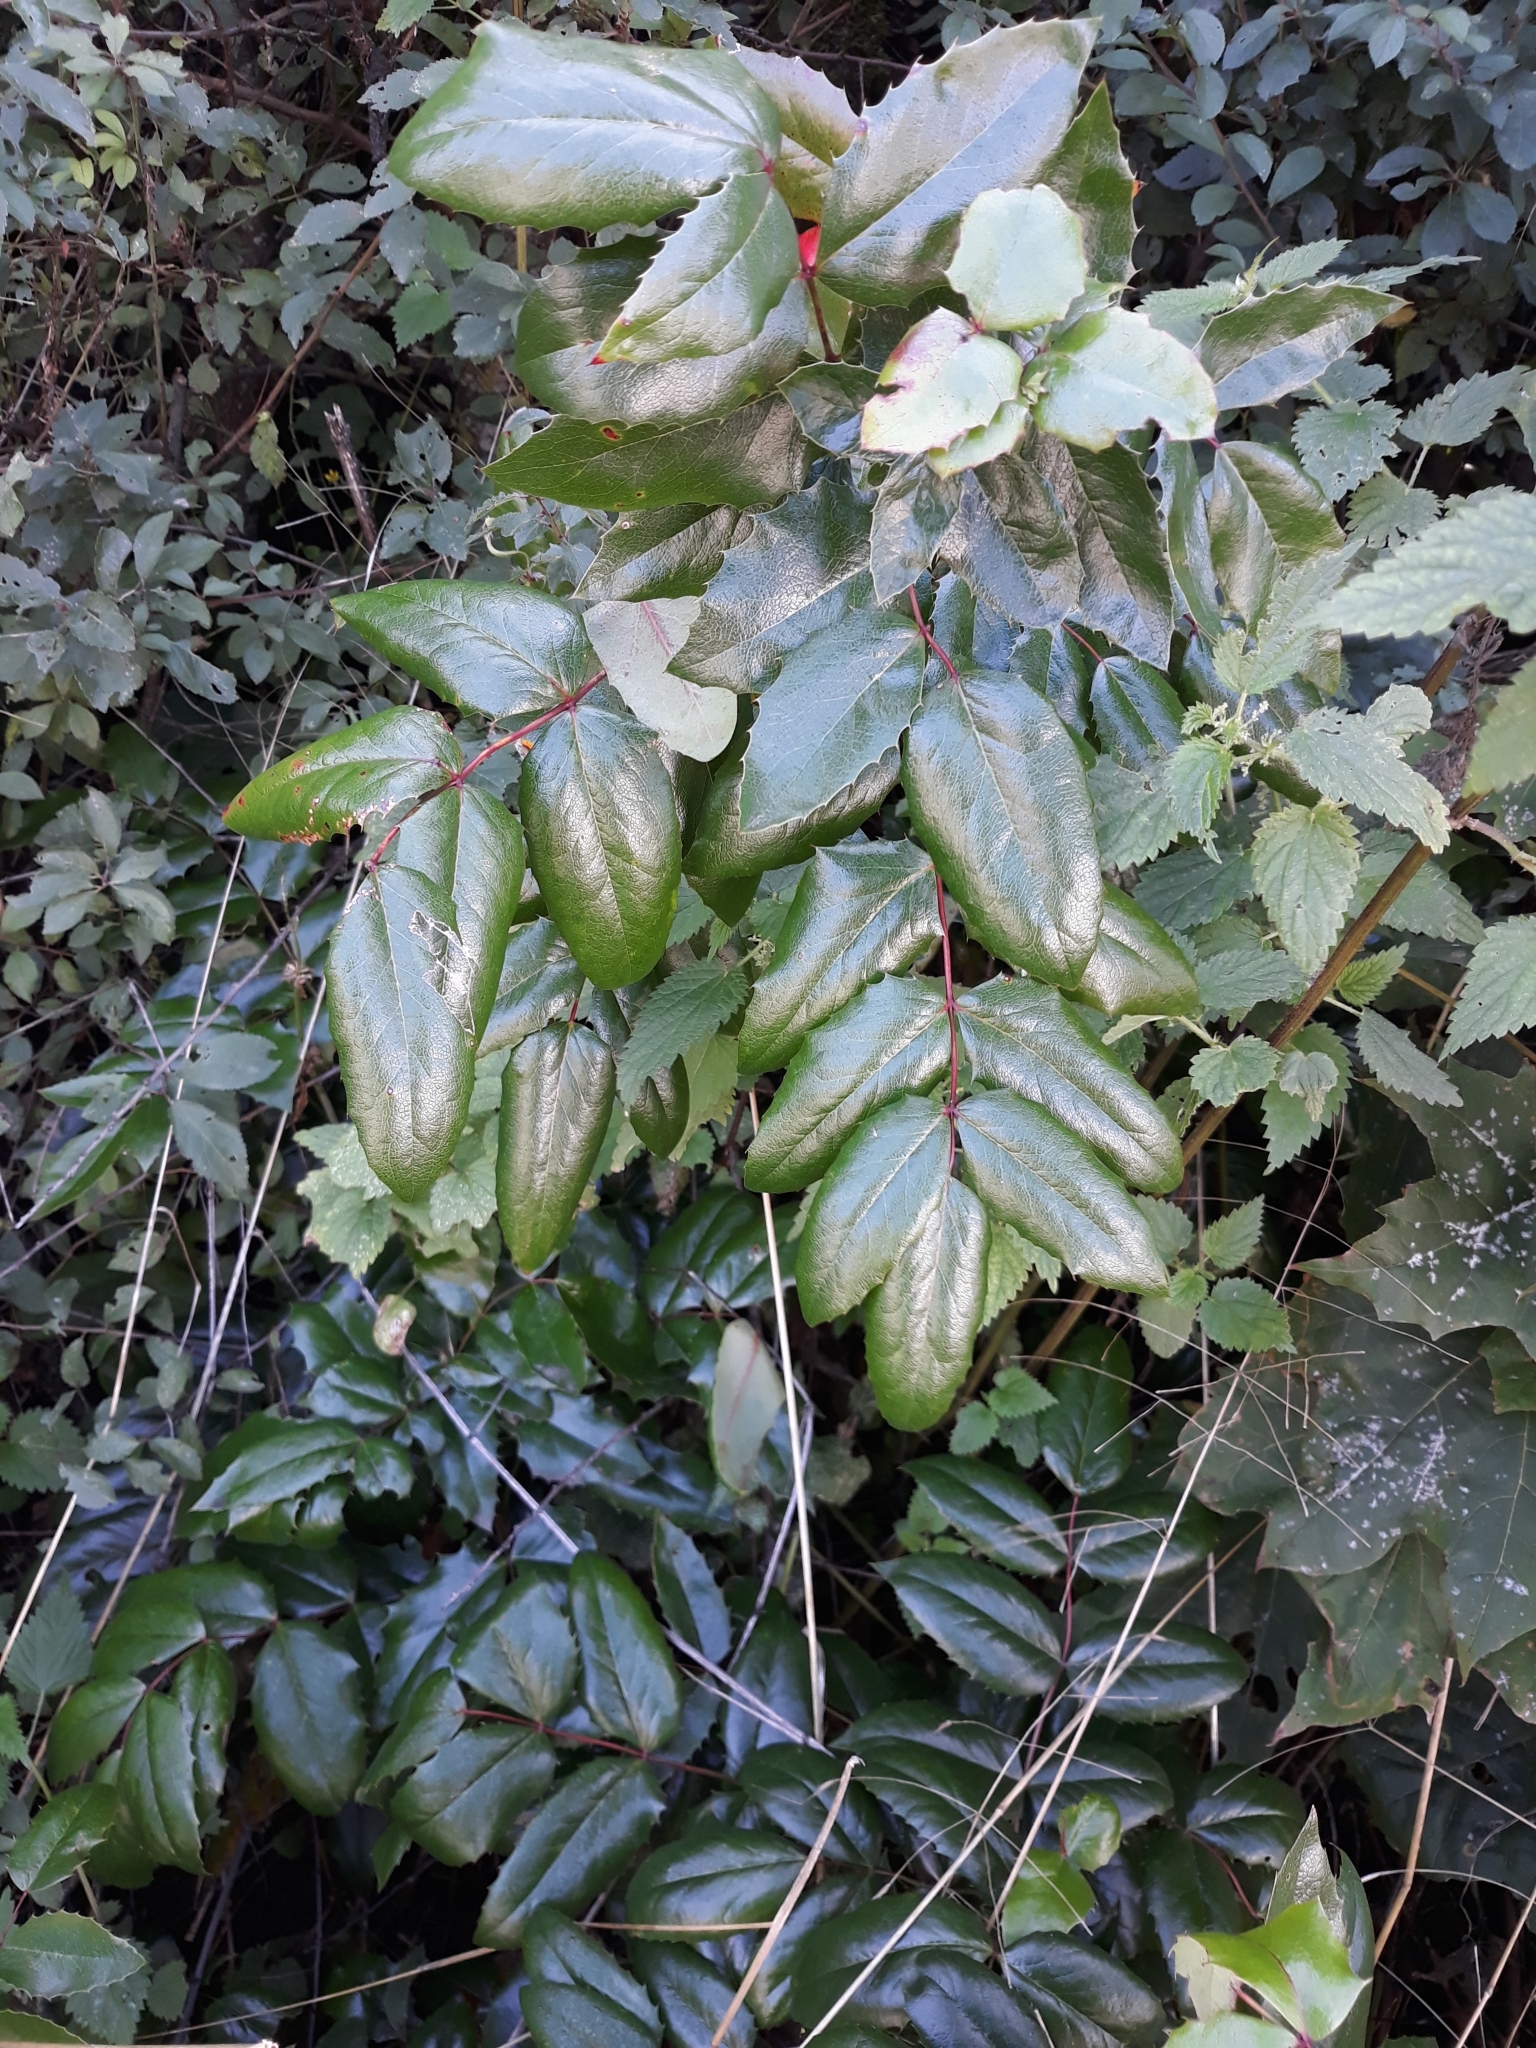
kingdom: Plantae
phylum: Tracheophyta
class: Magnoliopsida
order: Ranunculales
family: Berberidaceae
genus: Mahonia
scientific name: Mahonia aquifolium
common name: Oregon-grape
